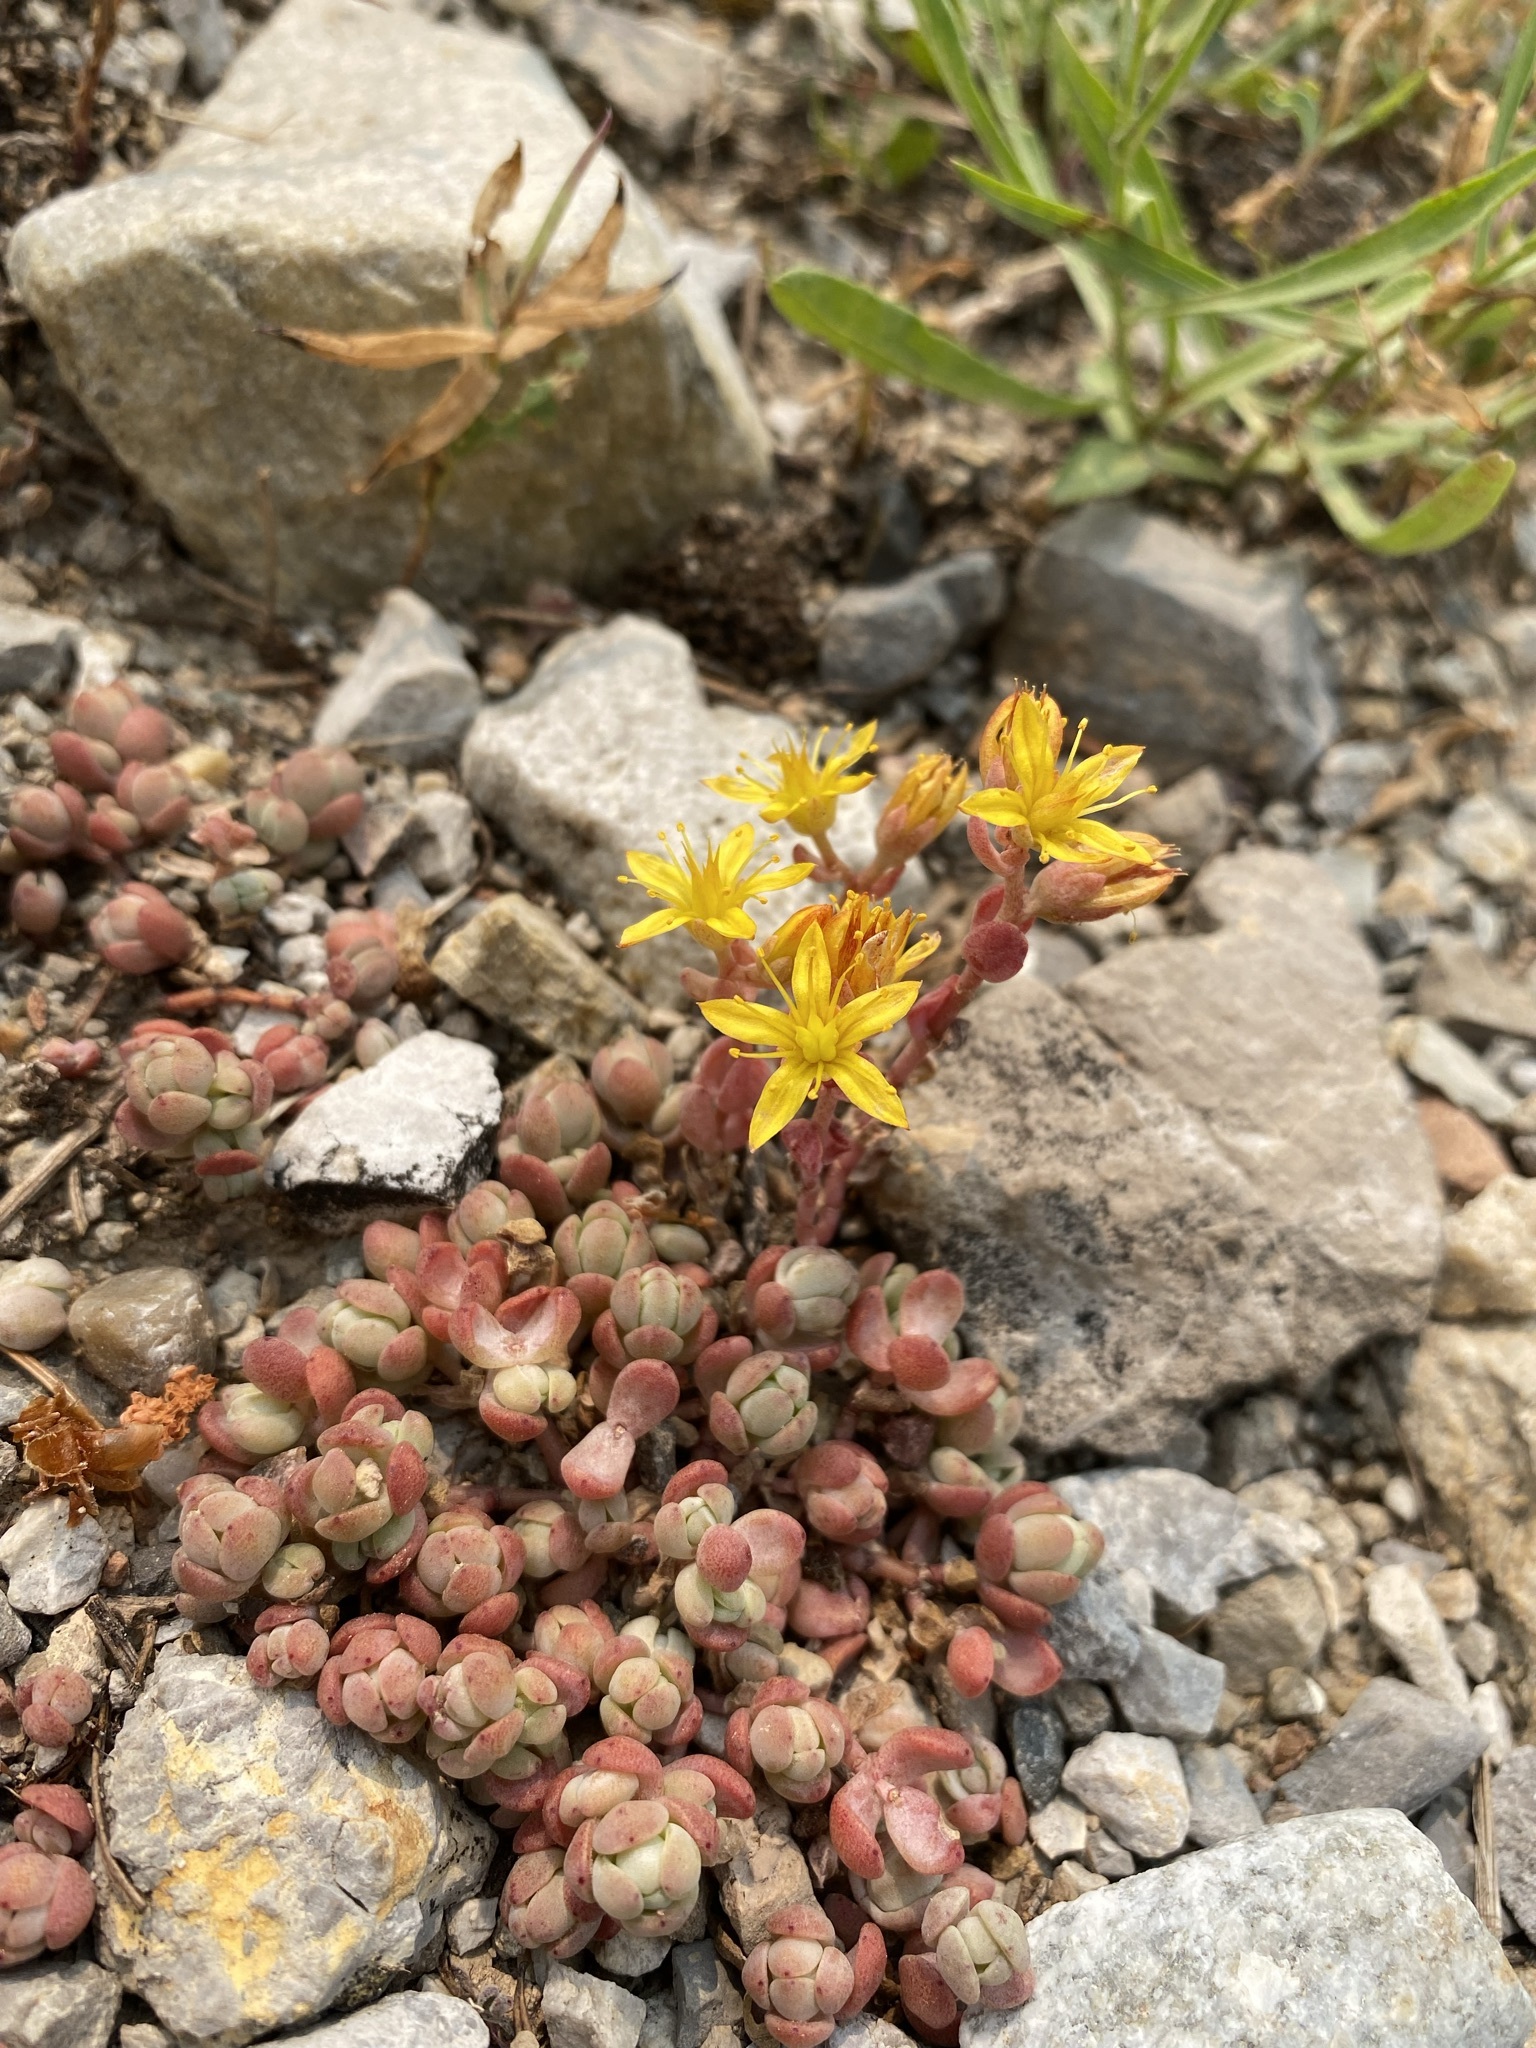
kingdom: Plantae
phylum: Tracheophyta
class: Magnoliopsida
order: Saxifragales
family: Crassulaceae
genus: Sedum
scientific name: Sedum debile
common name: Weak-stem stonecrop
